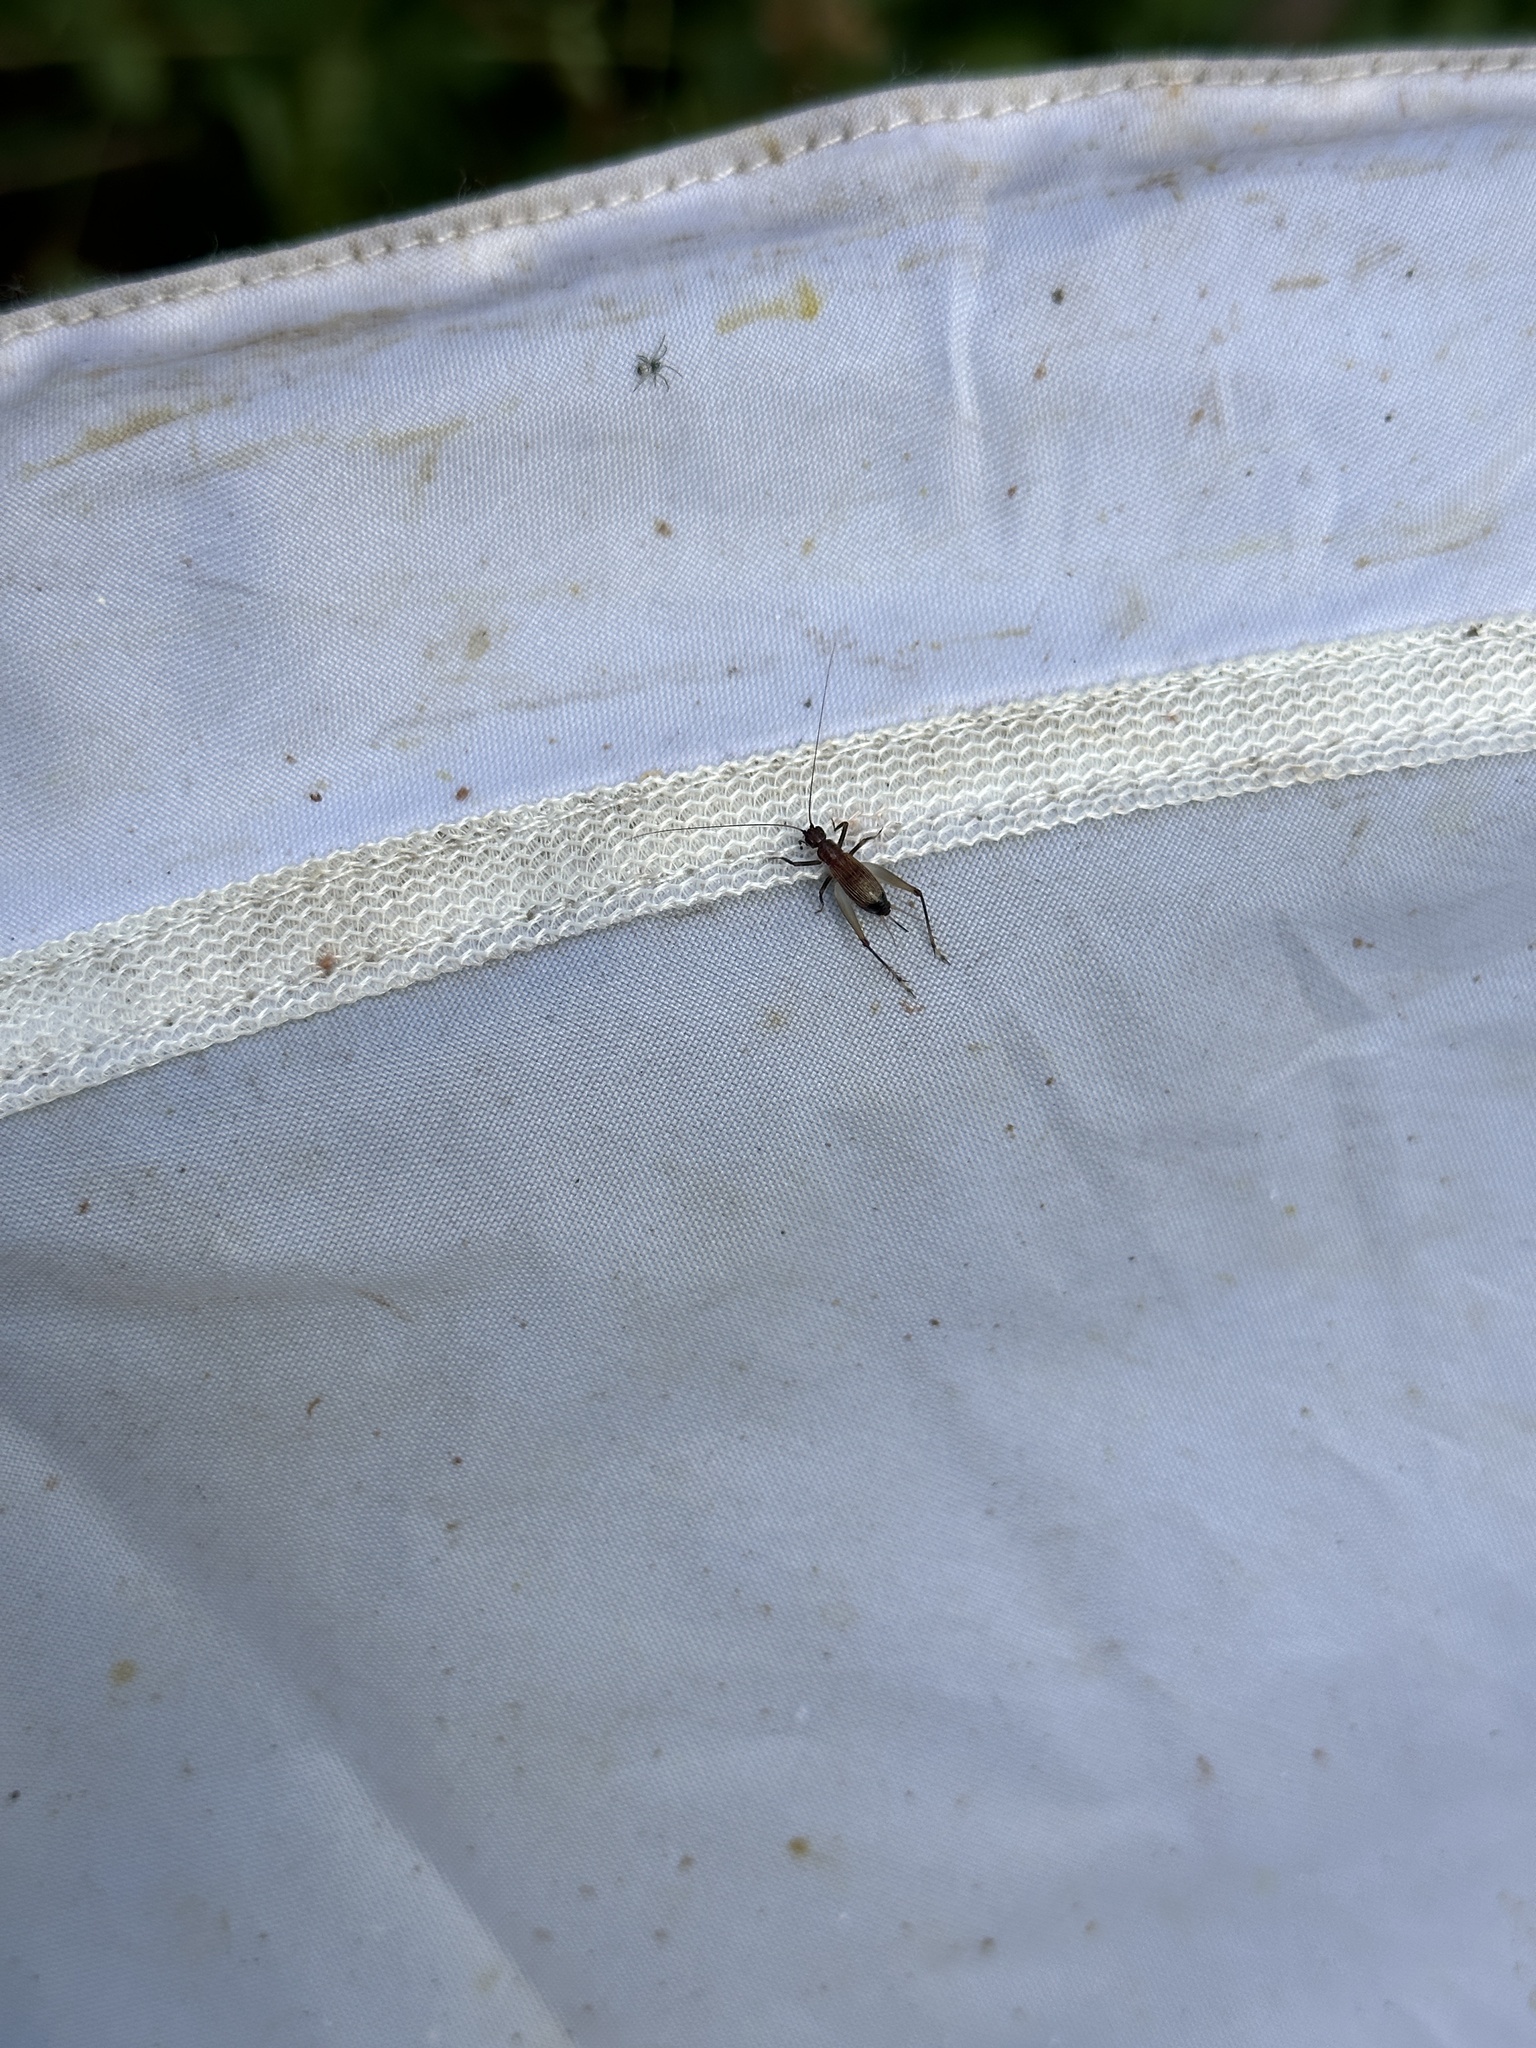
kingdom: Animalia
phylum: Arthropoda
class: Insecta
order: Orthoptera
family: Trigonidiidae
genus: Homoeoxipha
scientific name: Homoeoxipha obliterata
